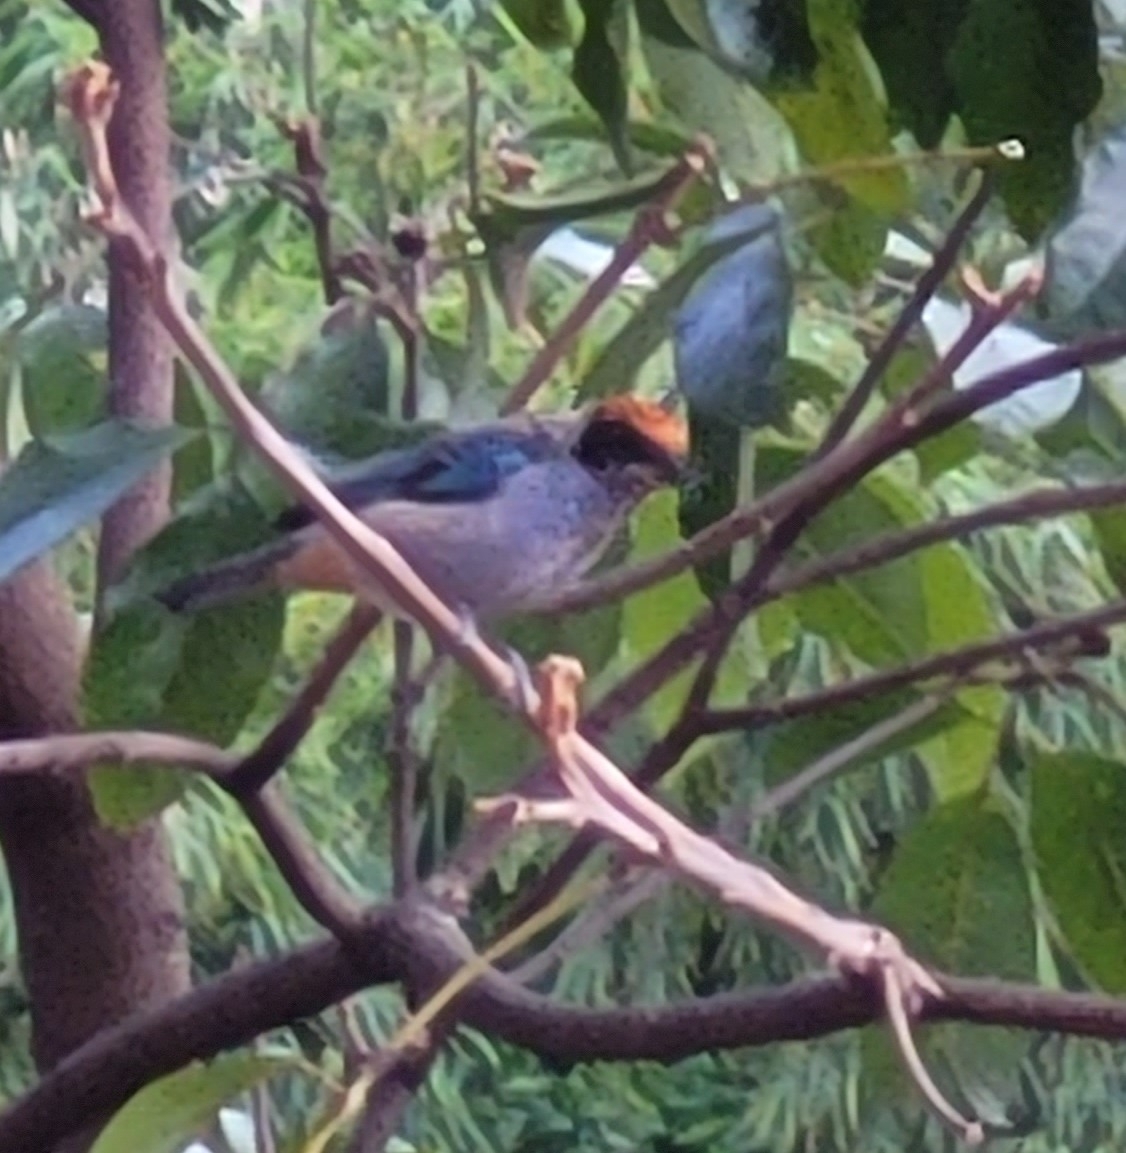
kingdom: Animalia
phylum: Chordata
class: Aves
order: Passeriformes
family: Thraupidae
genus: Stilpnia
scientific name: Stilpnia vitriolina
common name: Scrub tanager
